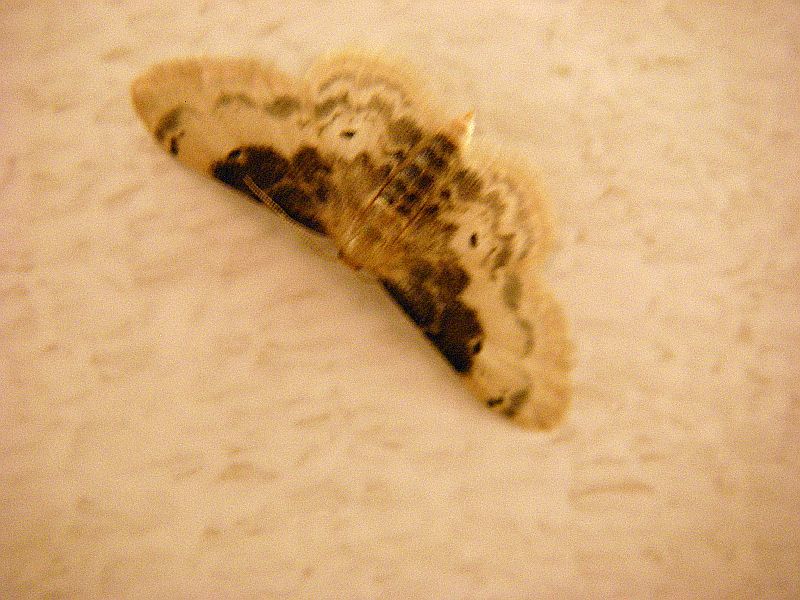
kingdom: Animalia
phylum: Arthropoda
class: Insecta
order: Lepidoptera
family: Geometridae
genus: Idaea
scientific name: Idaea filicata
